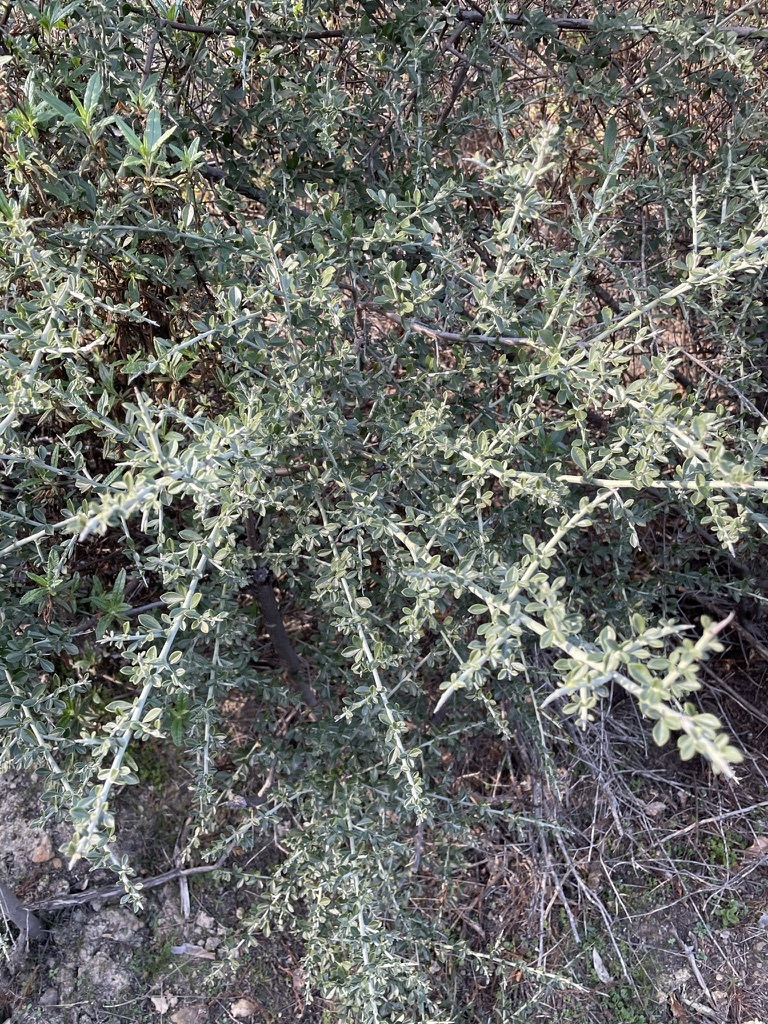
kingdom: Plantae
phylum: Tracheophyta
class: Magnoliopsida
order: Fabales
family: Fabaceae
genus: Pickeringia
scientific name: Pickeringia montana
